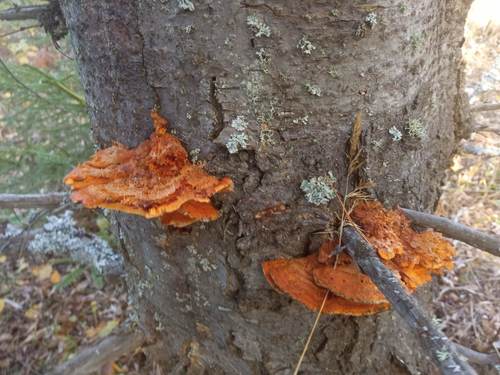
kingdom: Fungi
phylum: Basidiomycota
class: Agaricomycetes
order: Polyporales
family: Pycnoporellaceae
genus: Pycnoporellus
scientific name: Pycnoporellus fulgens
